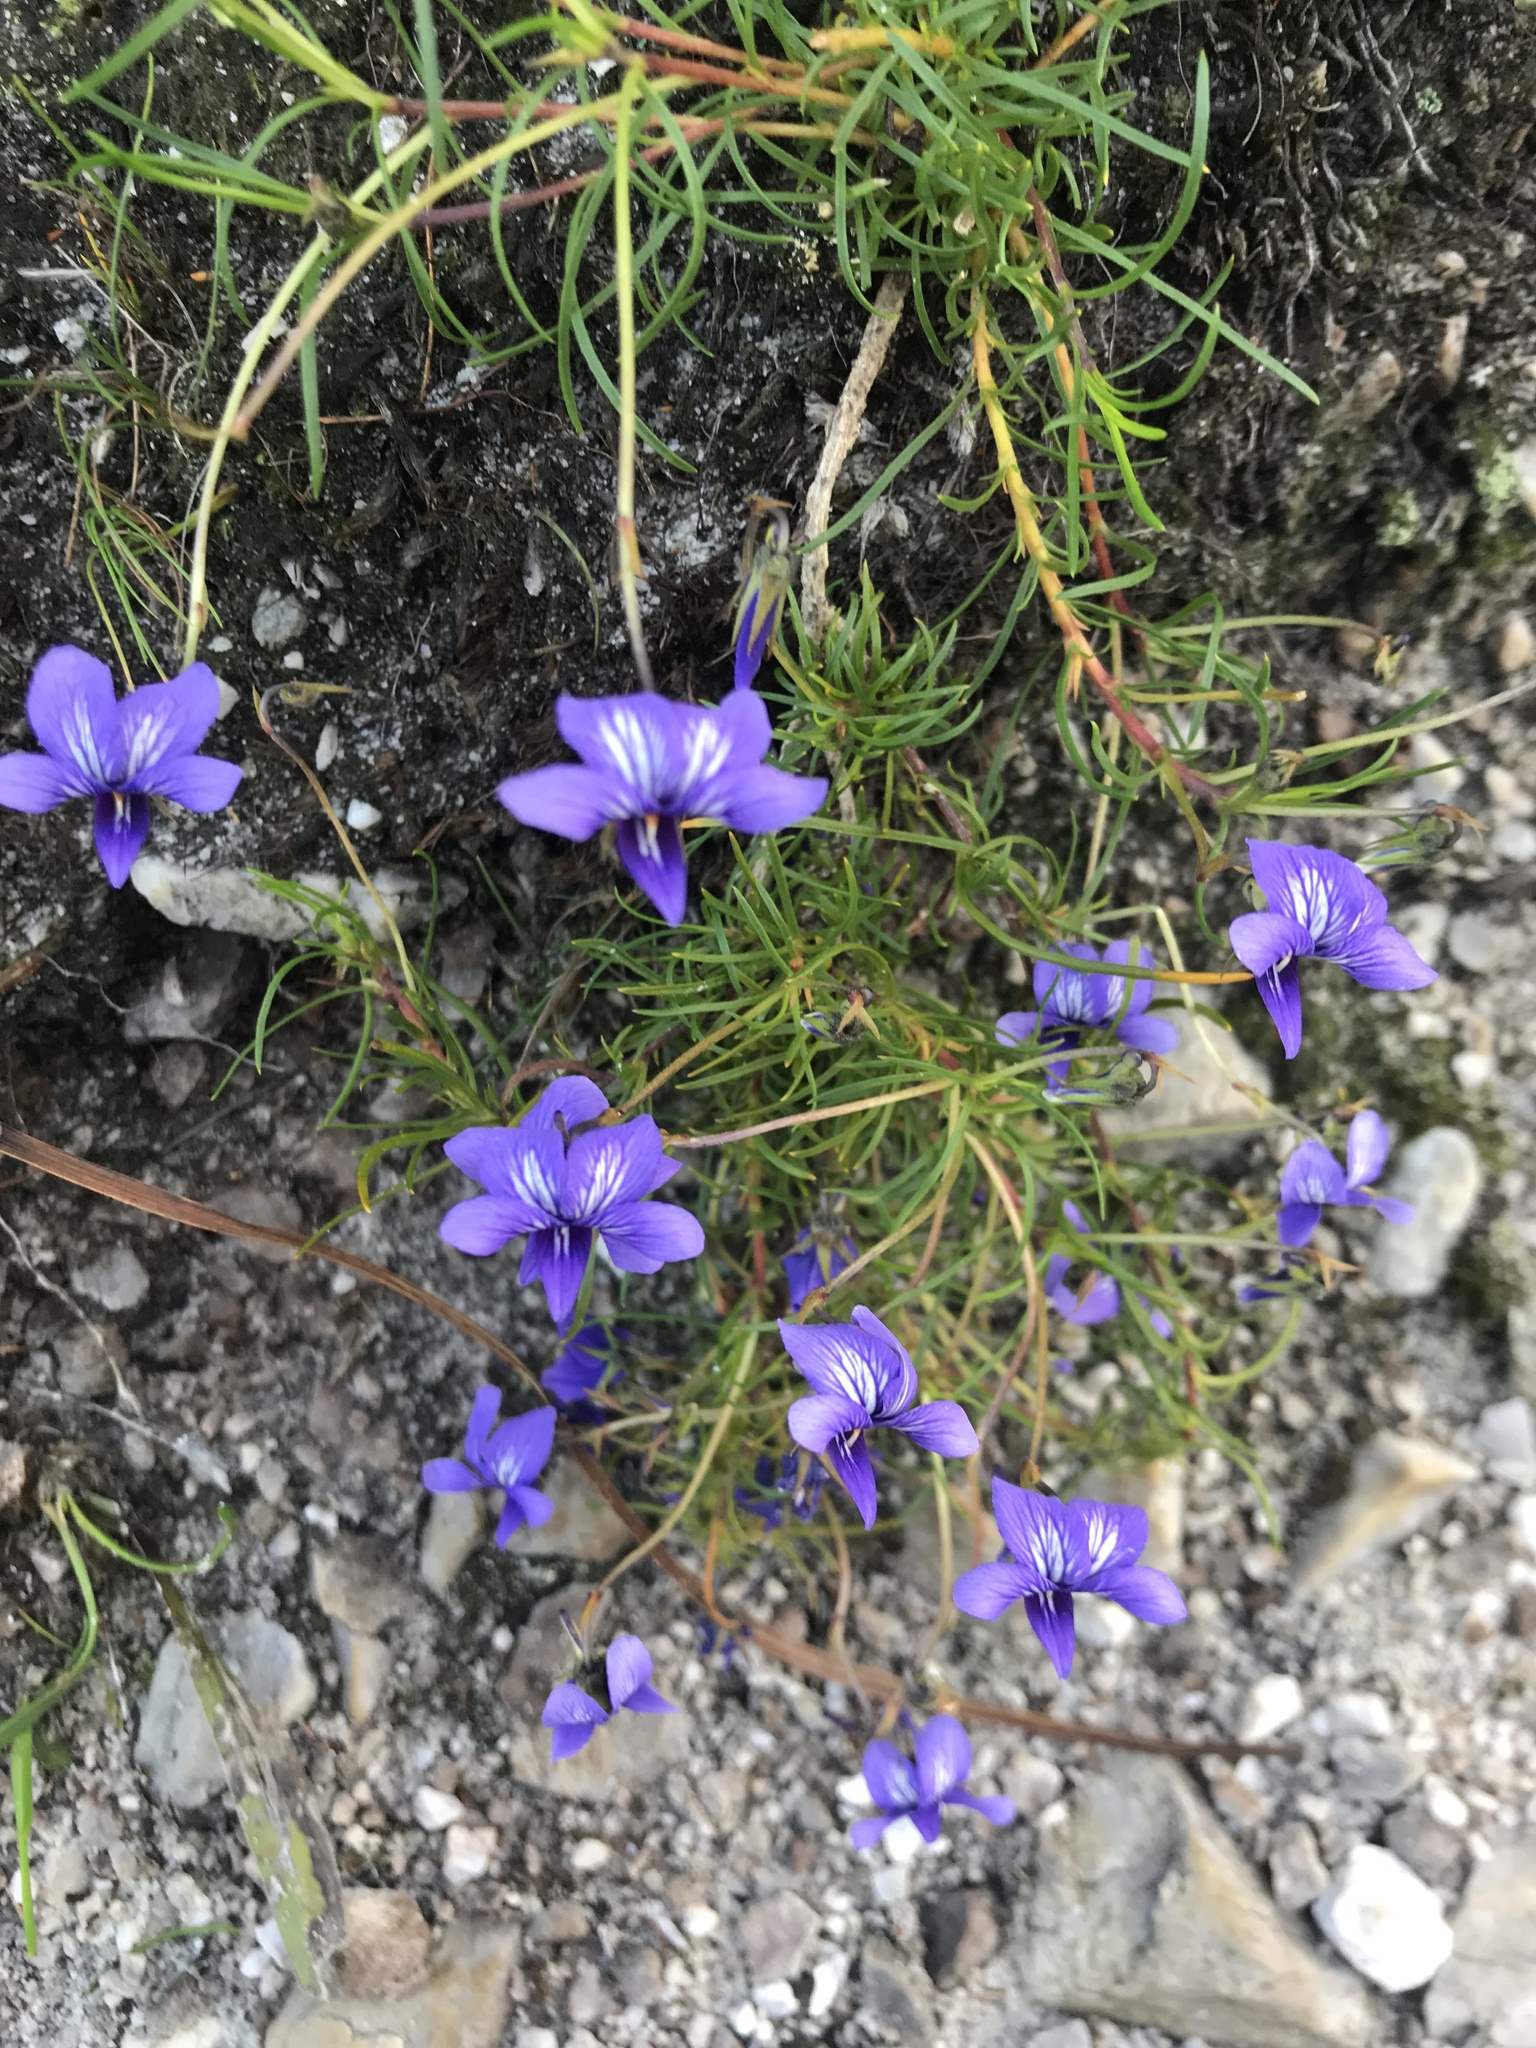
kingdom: Plantae
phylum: Tracheophyta
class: Magnoliopsida
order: Malpighiales
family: Violaceae
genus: Viola
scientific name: Viola decumbens
